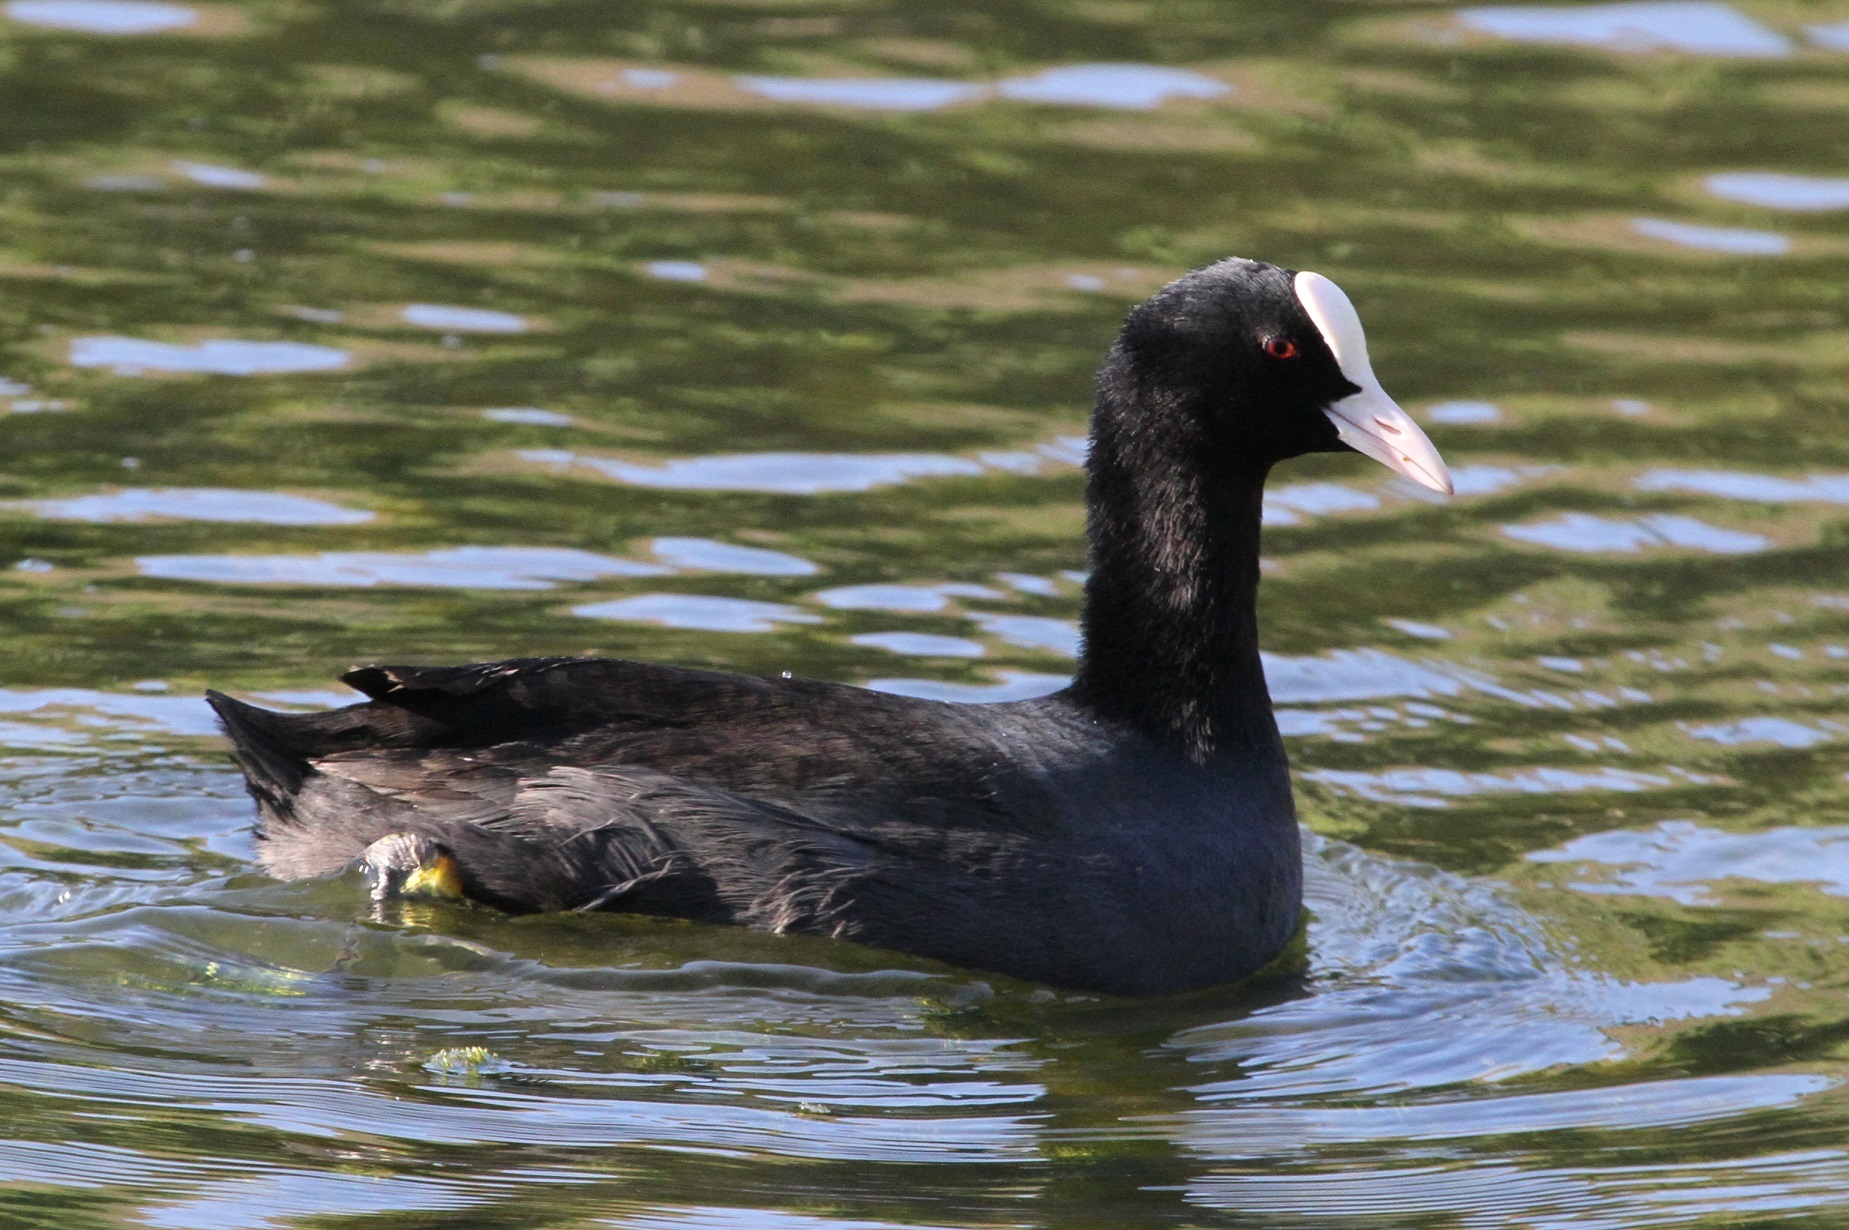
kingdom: Animalia
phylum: Chordata
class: Aves
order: Gruiformes
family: Rallidae
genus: Fulica
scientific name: Fulica atra
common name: Eurasian coot
